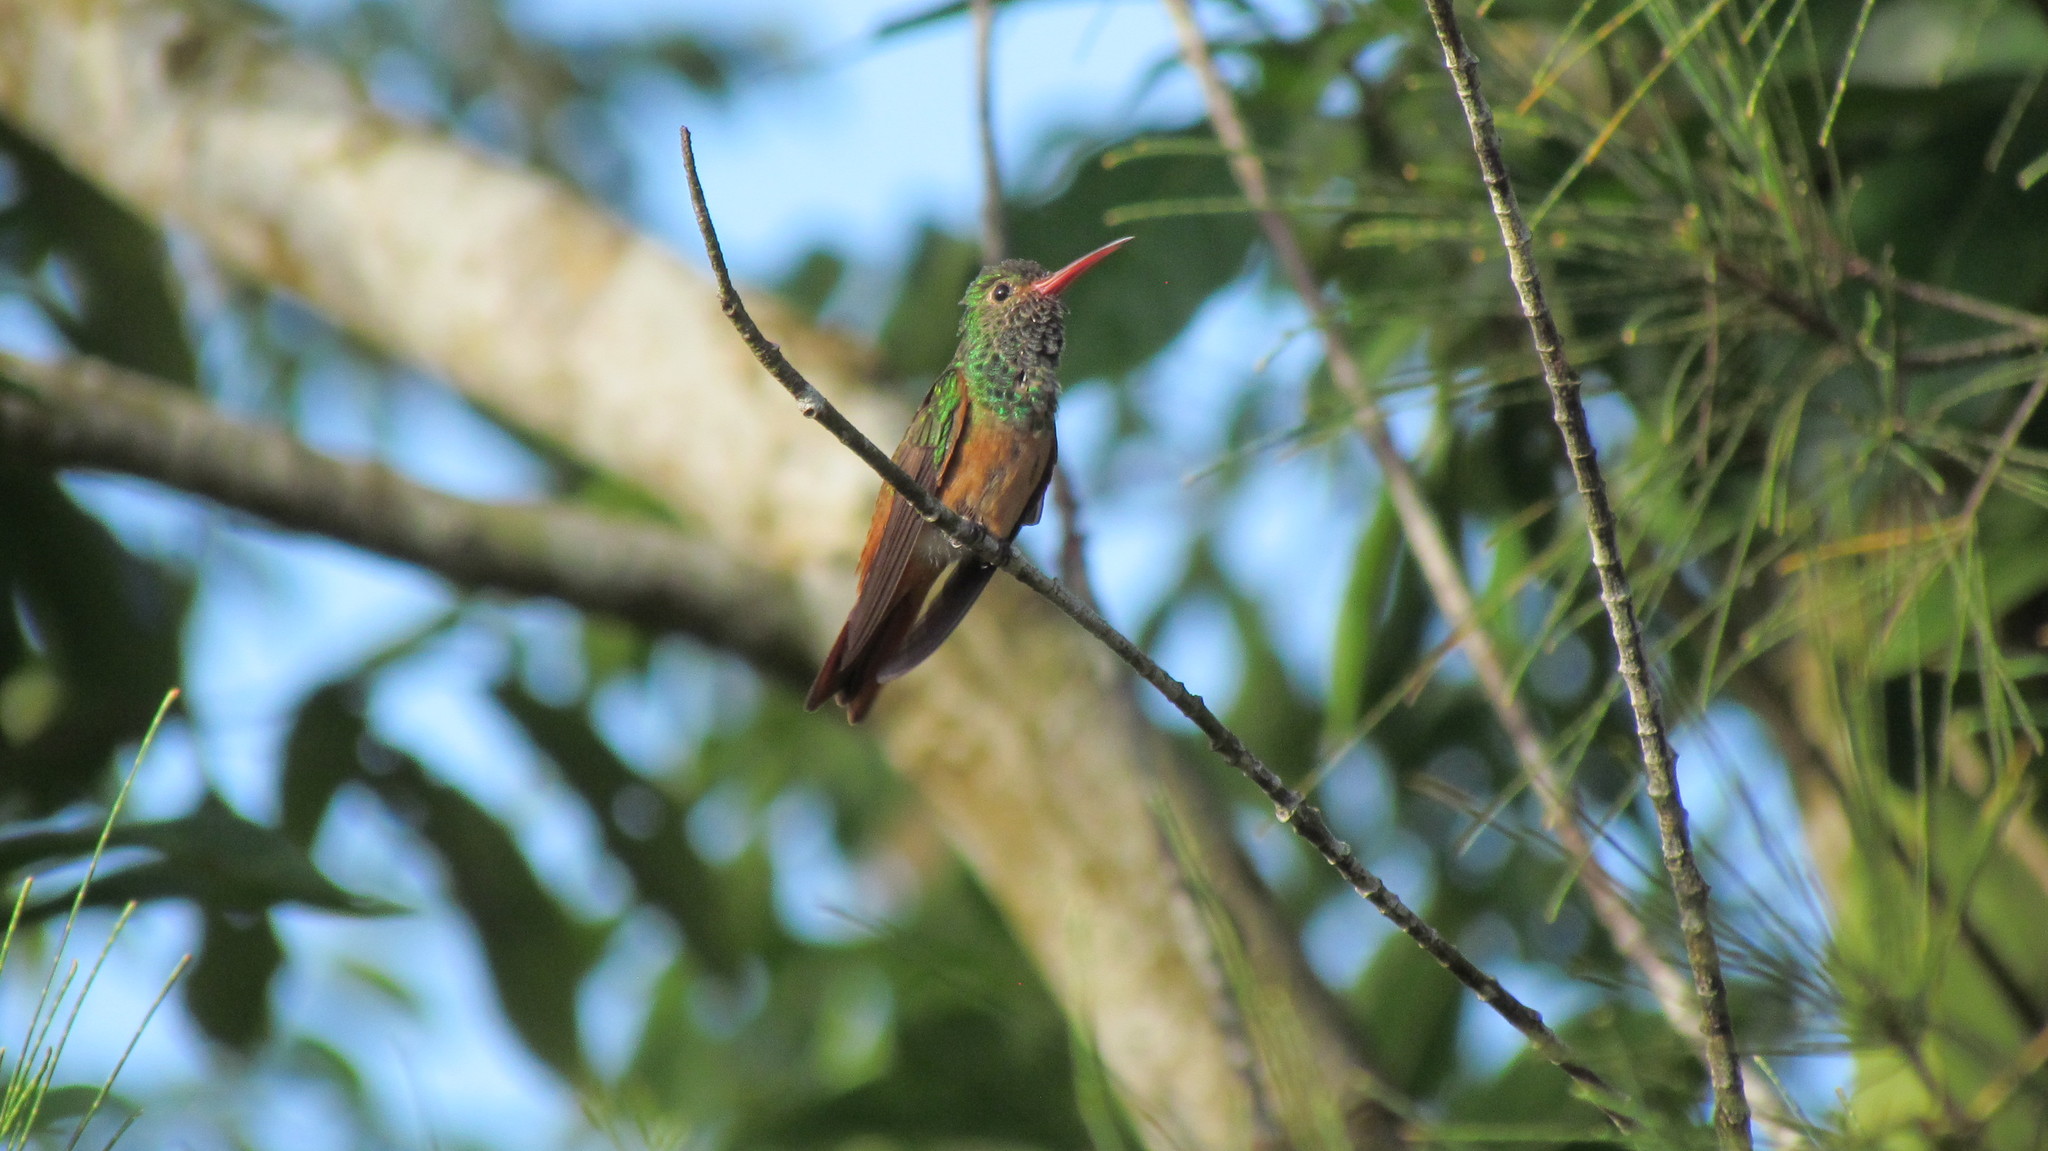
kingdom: Animalia
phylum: Chordata
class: Aves
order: Apodiformes
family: Trochilidae
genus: Amazilia
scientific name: Amazilia yucatanensis
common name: Buff-bellied hummingbird
